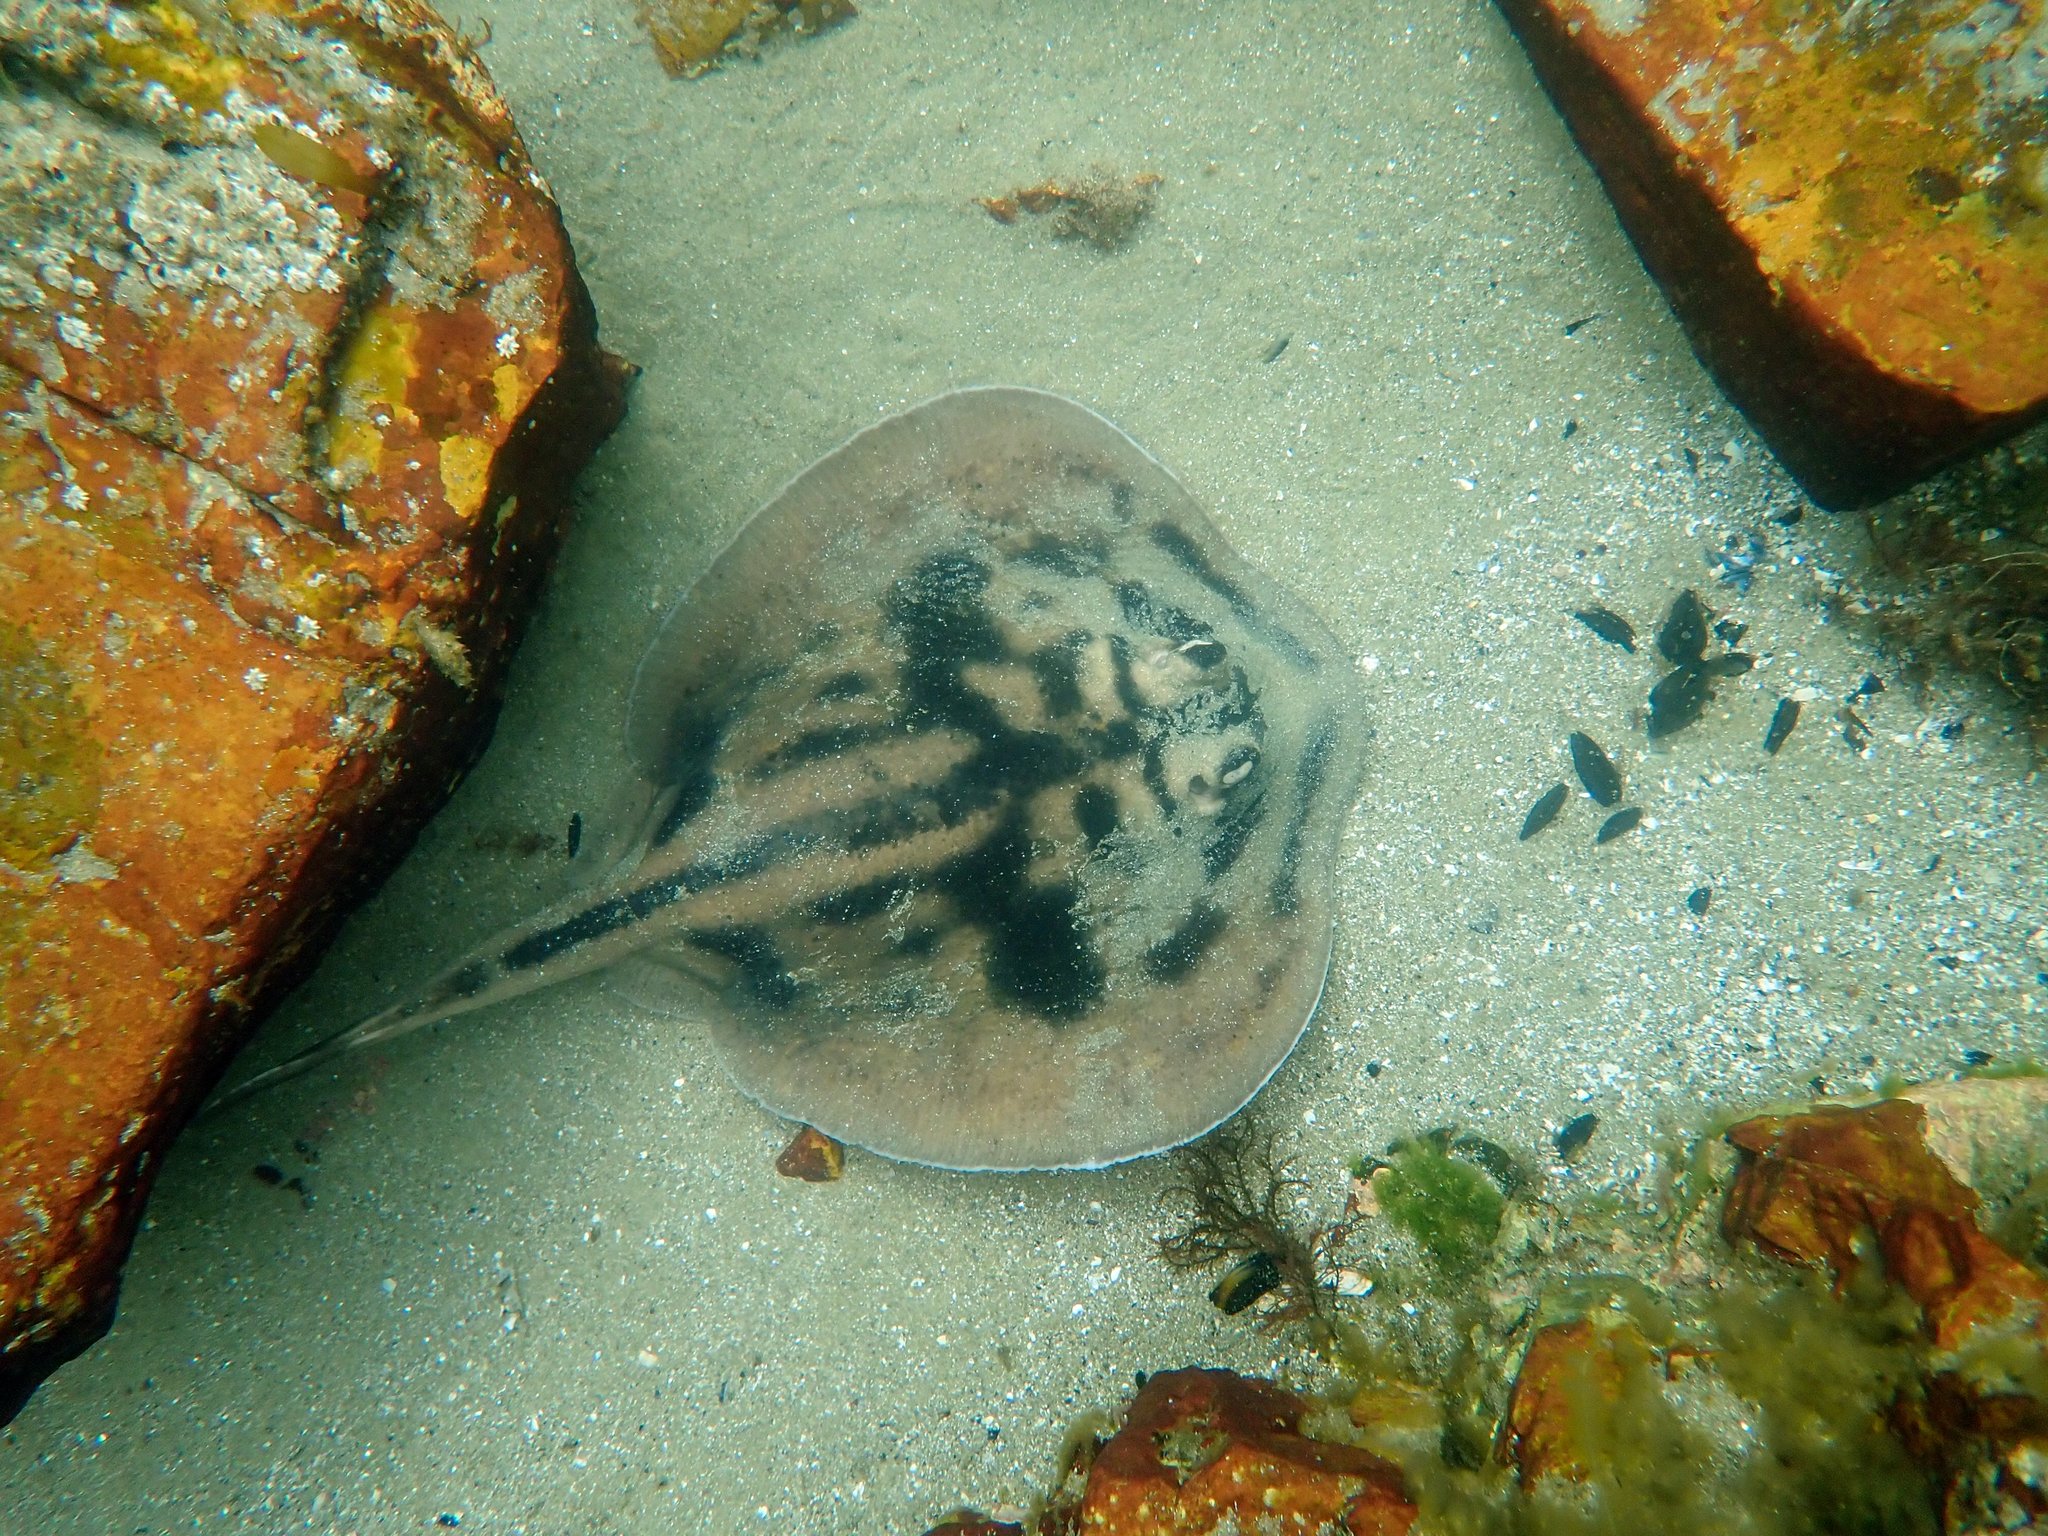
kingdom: Animalia
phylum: Chordata
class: Elasmobranchii
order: Myliobatiformes
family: Urolophidae
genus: Urolophus
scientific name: Urolophus cruciatus
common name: Banded stingaree
